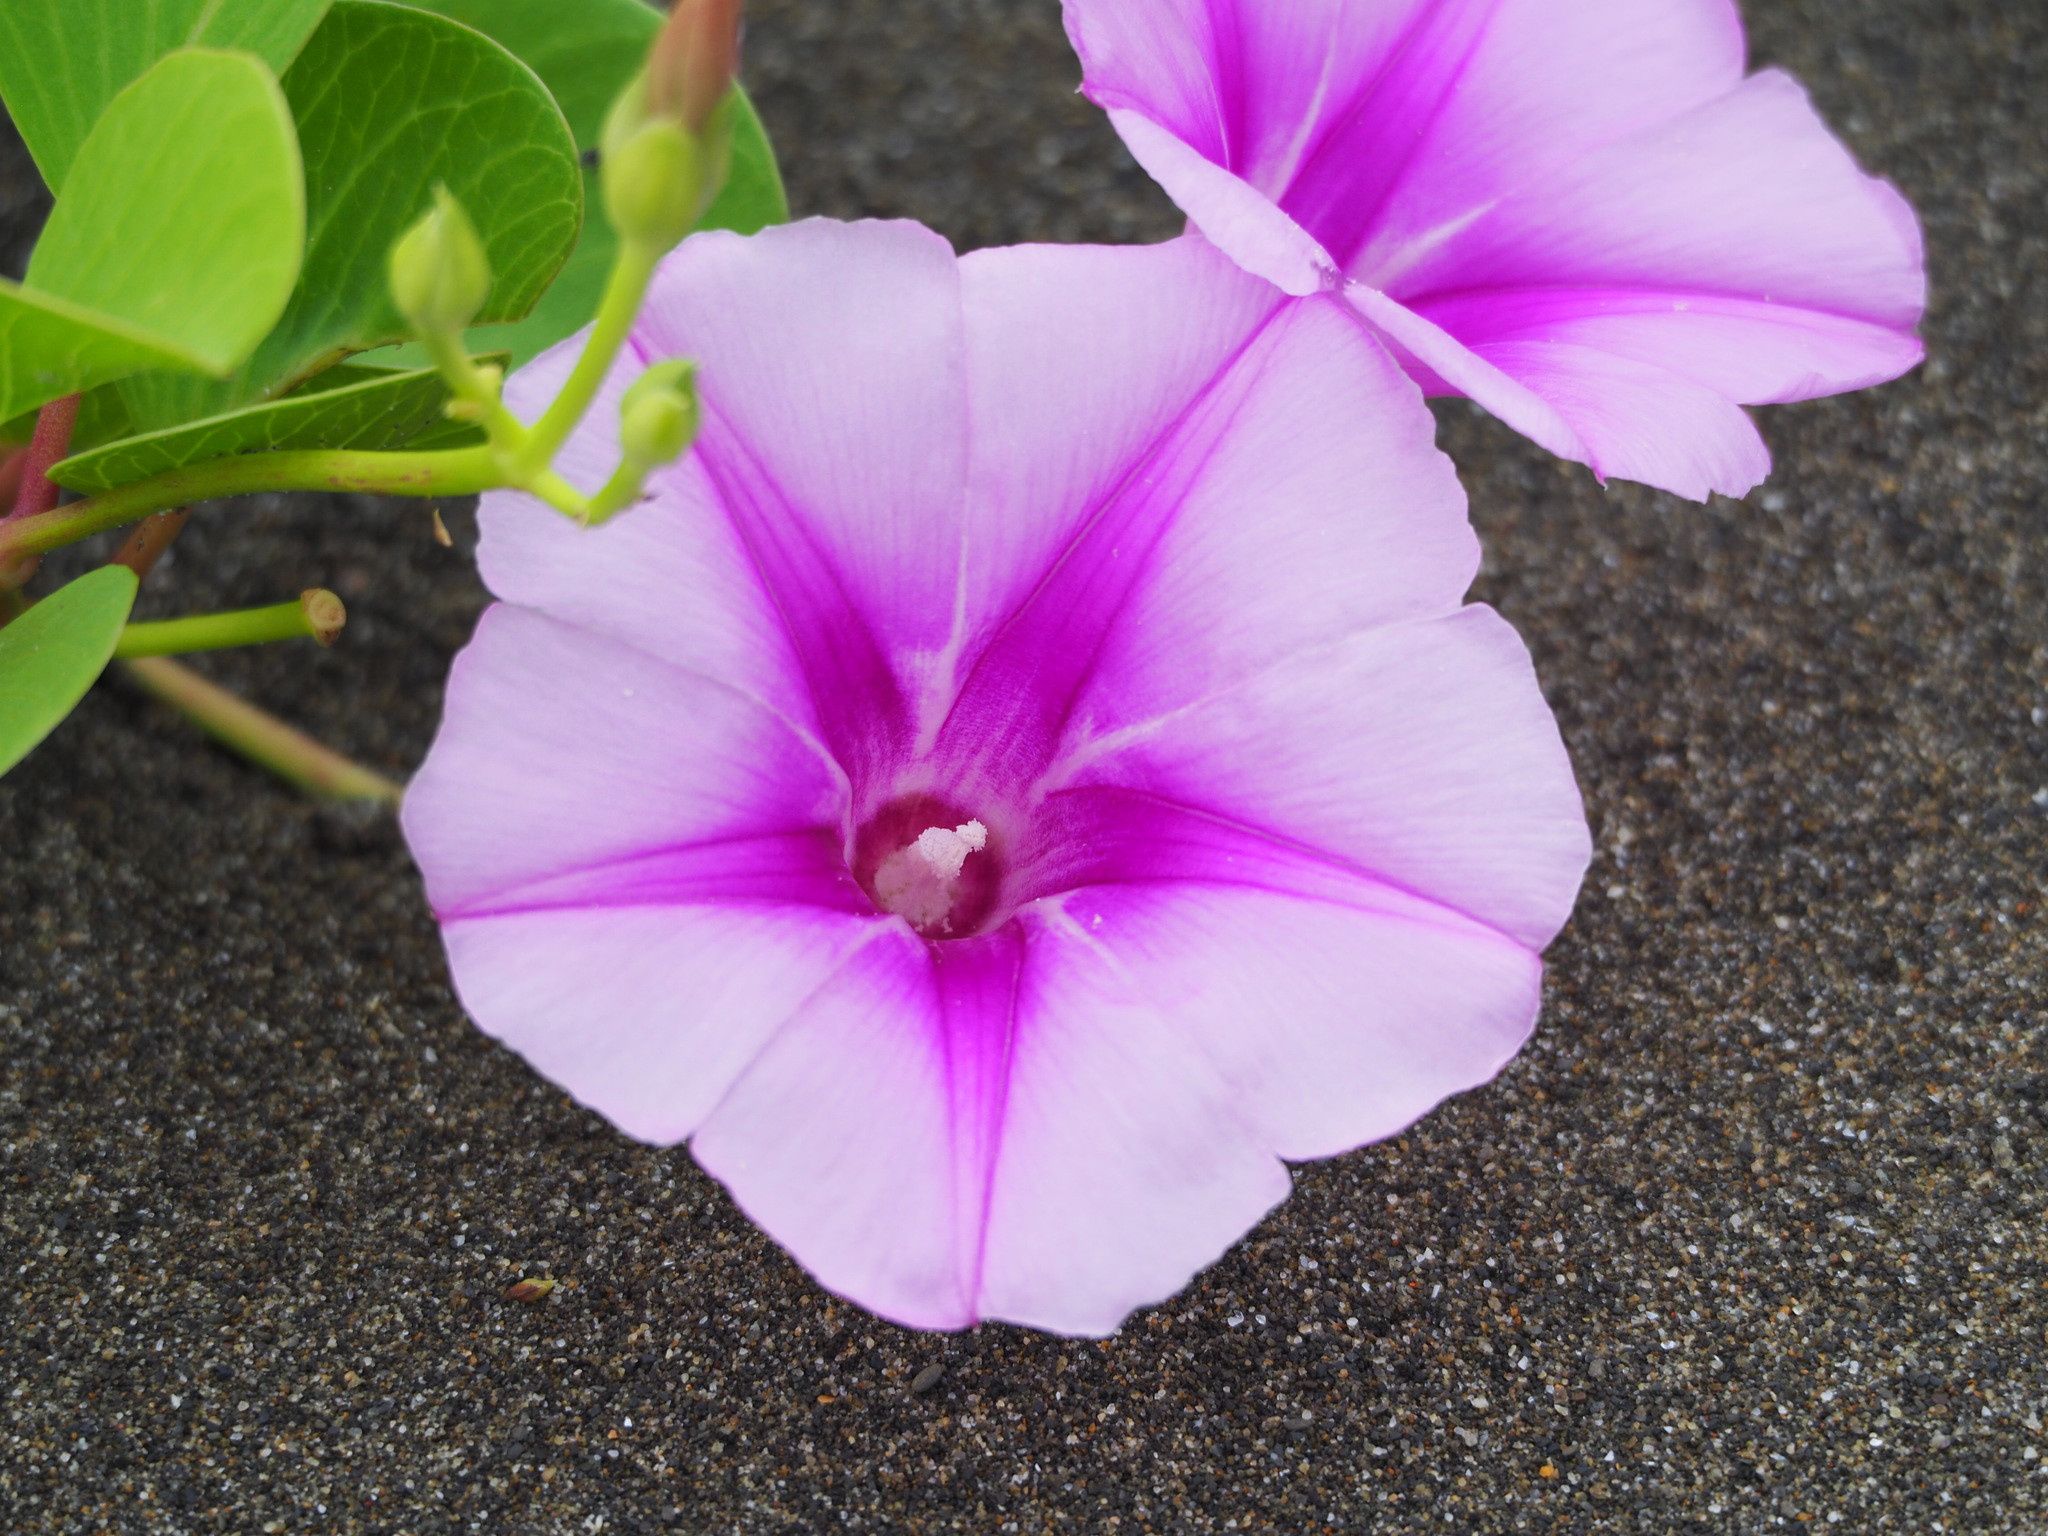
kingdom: Plantae
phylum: Tracheophyta
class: Magnoliopsida
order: Solanales
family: Convolvulaceae
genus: Ipomoea
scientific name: Ipomoea pes-caprae
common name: Beach morning glory
